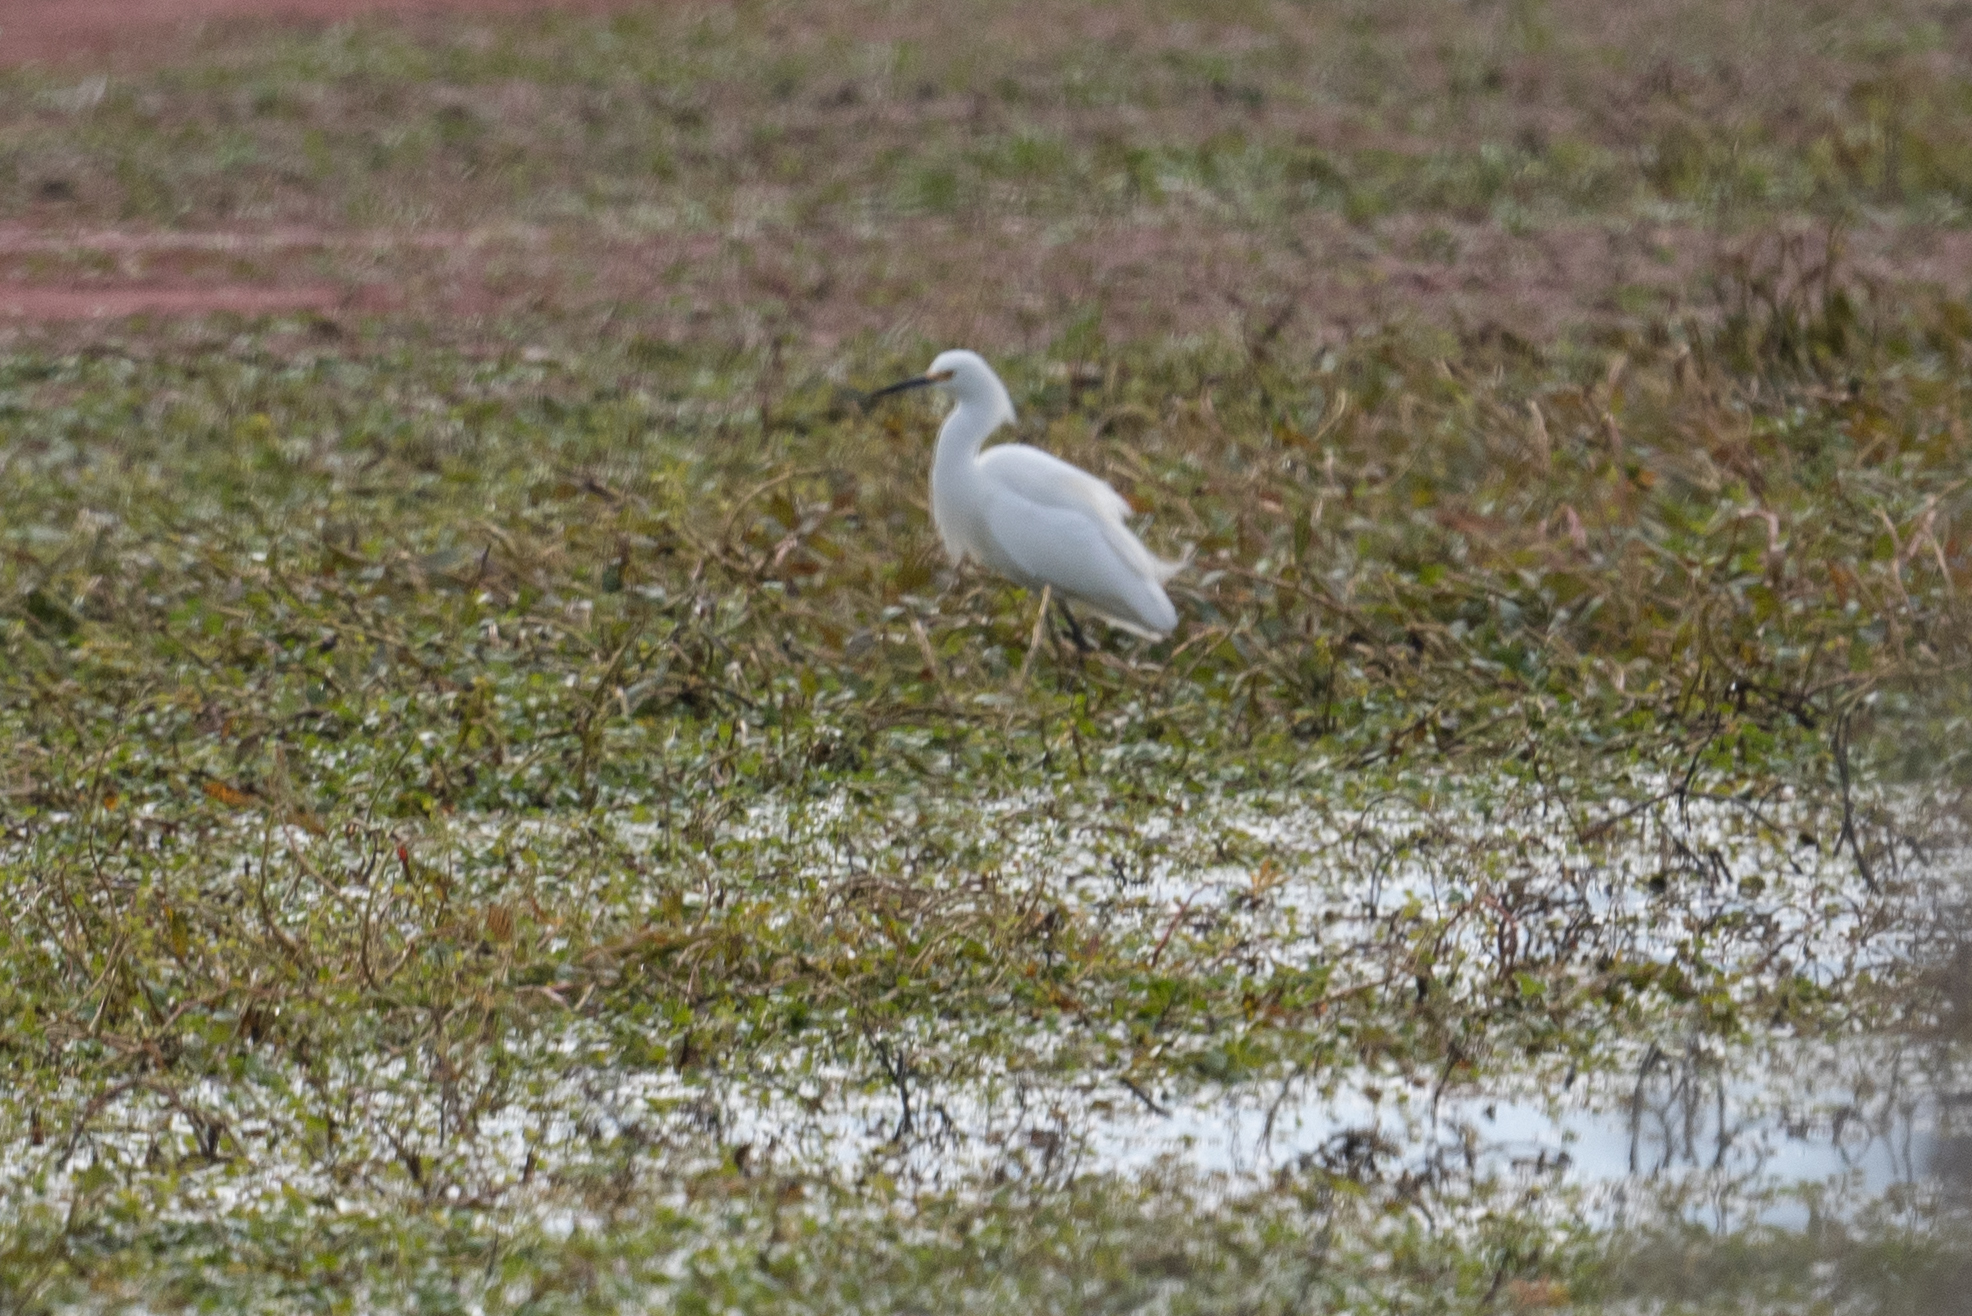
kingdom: Animalia
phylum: Chordata
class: Aves
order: Pelecaniformes
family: Ardeidae
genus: Egretta
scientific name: Egretta thula
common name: Snowy egret
